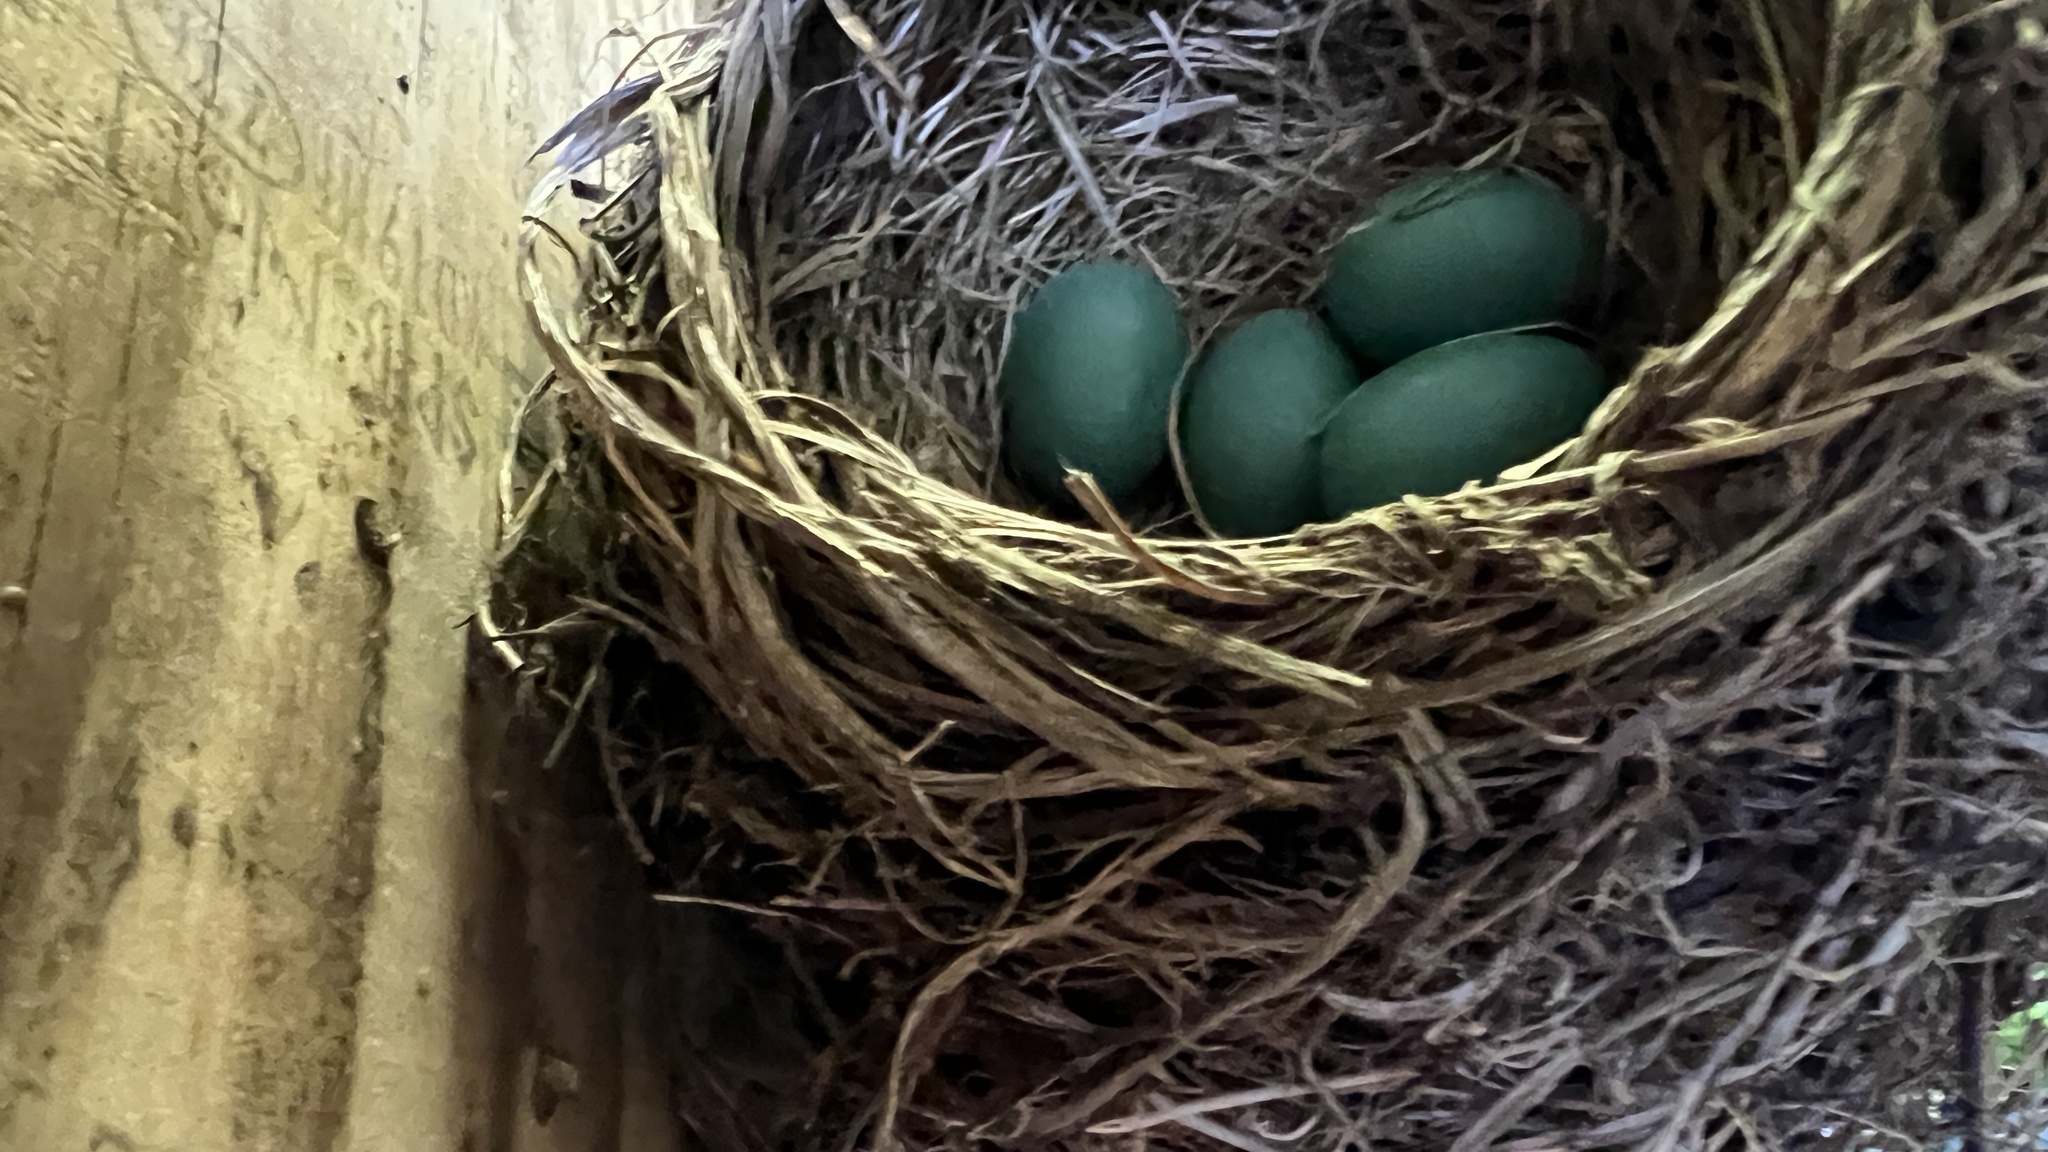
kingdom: Animalia
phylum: Chordata
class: Aves
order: Passeriformes
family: Turdidae
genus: Turdus
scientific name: Turdus migratorius
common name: American robin
